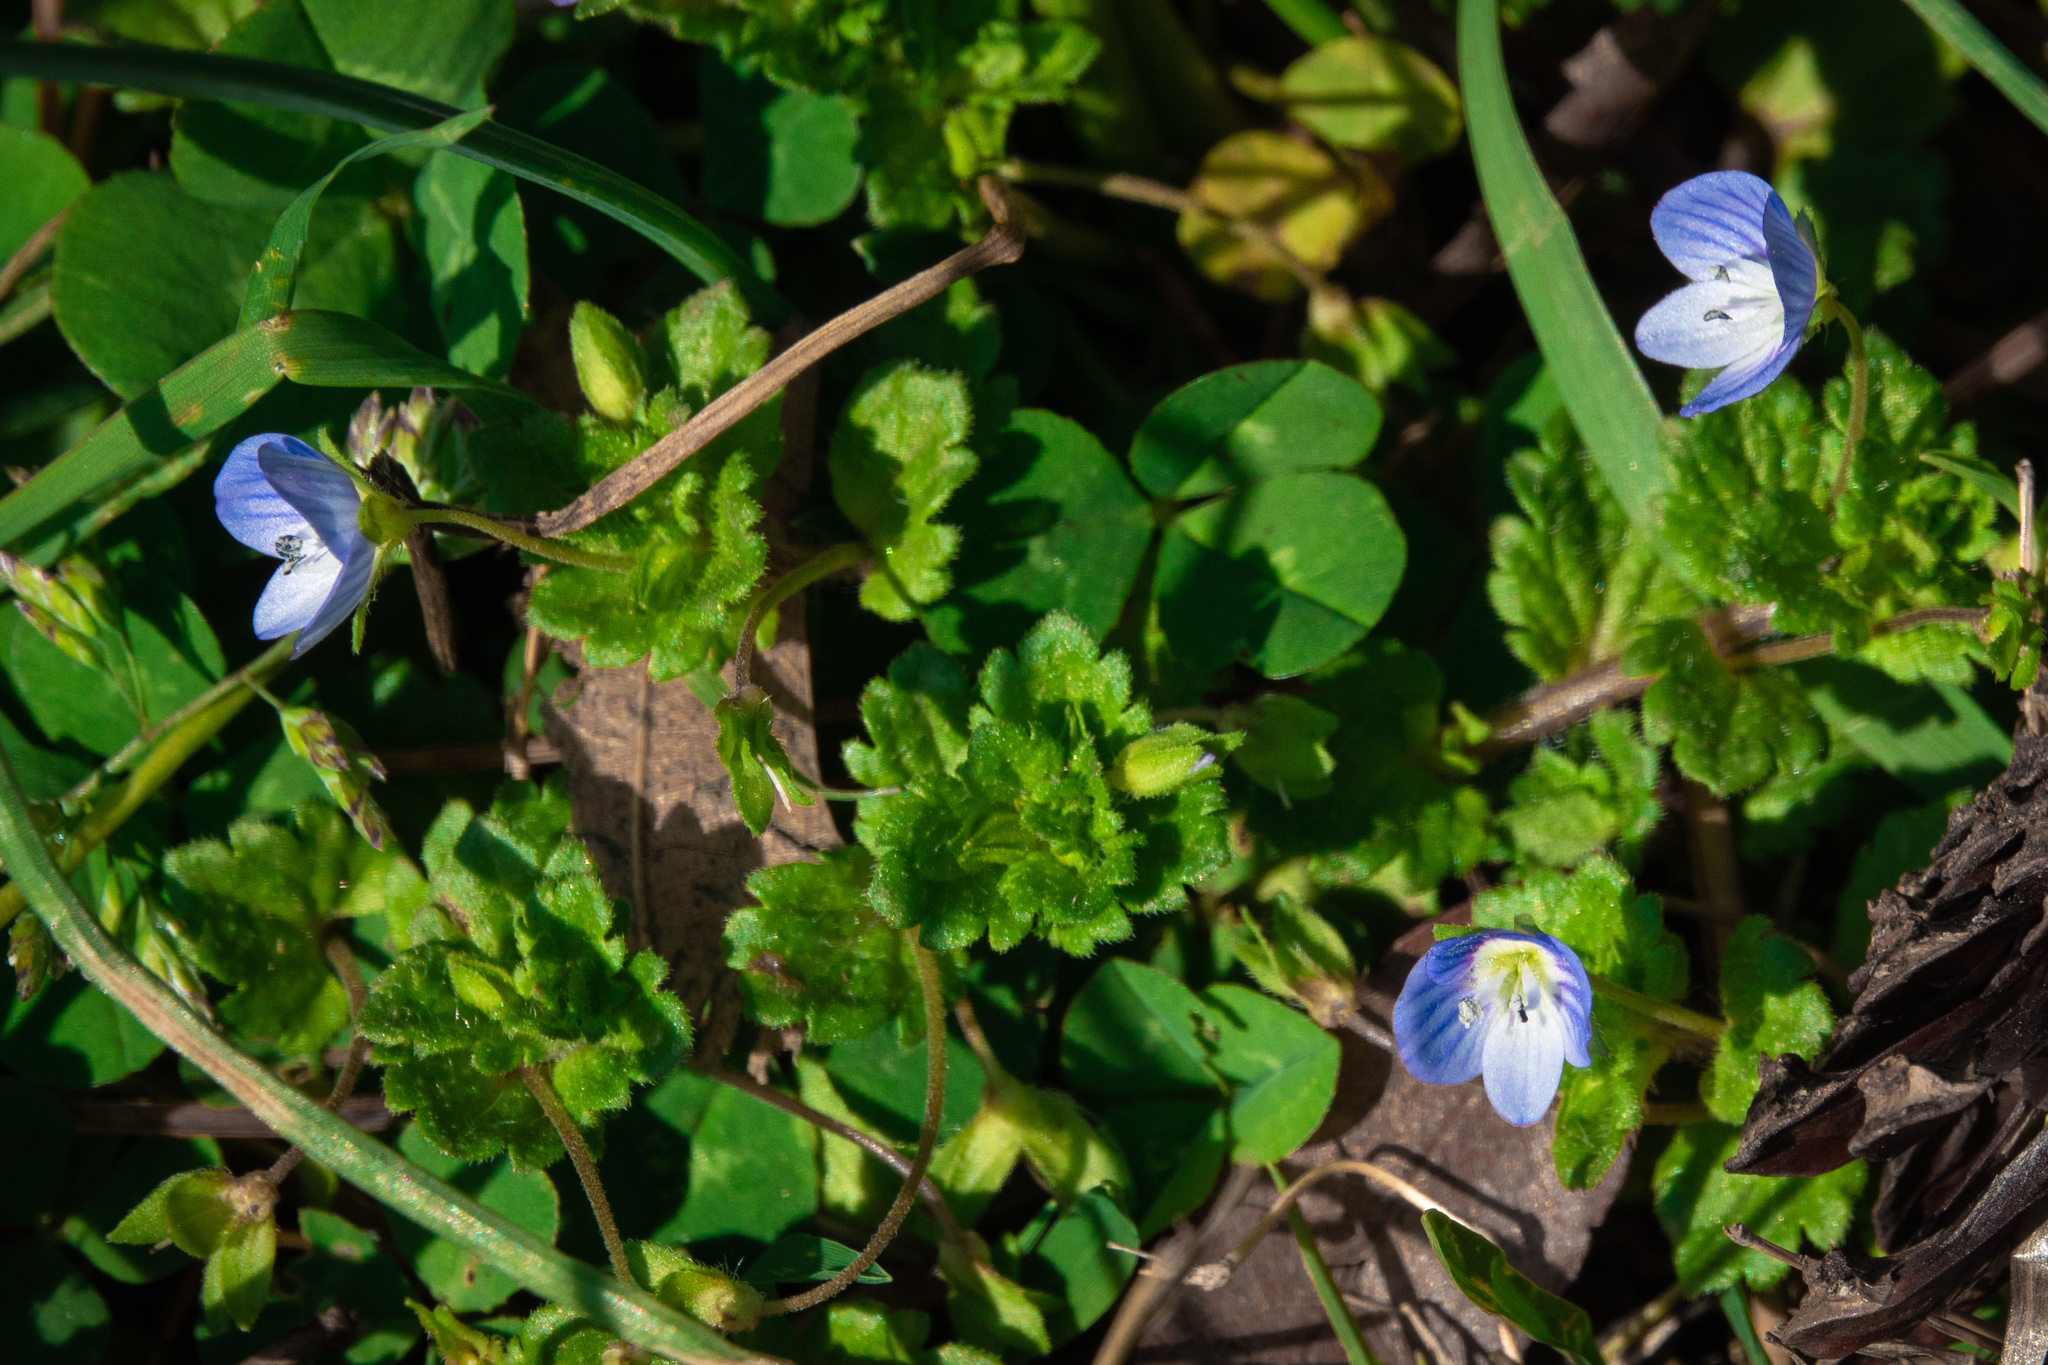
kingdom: Plantae
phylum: Tracheophyta
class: Magnoliopsida
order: Lamiales
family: Plantaginaceae
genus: Veronica
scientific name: Veronica persica
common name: Common field-speedwell
